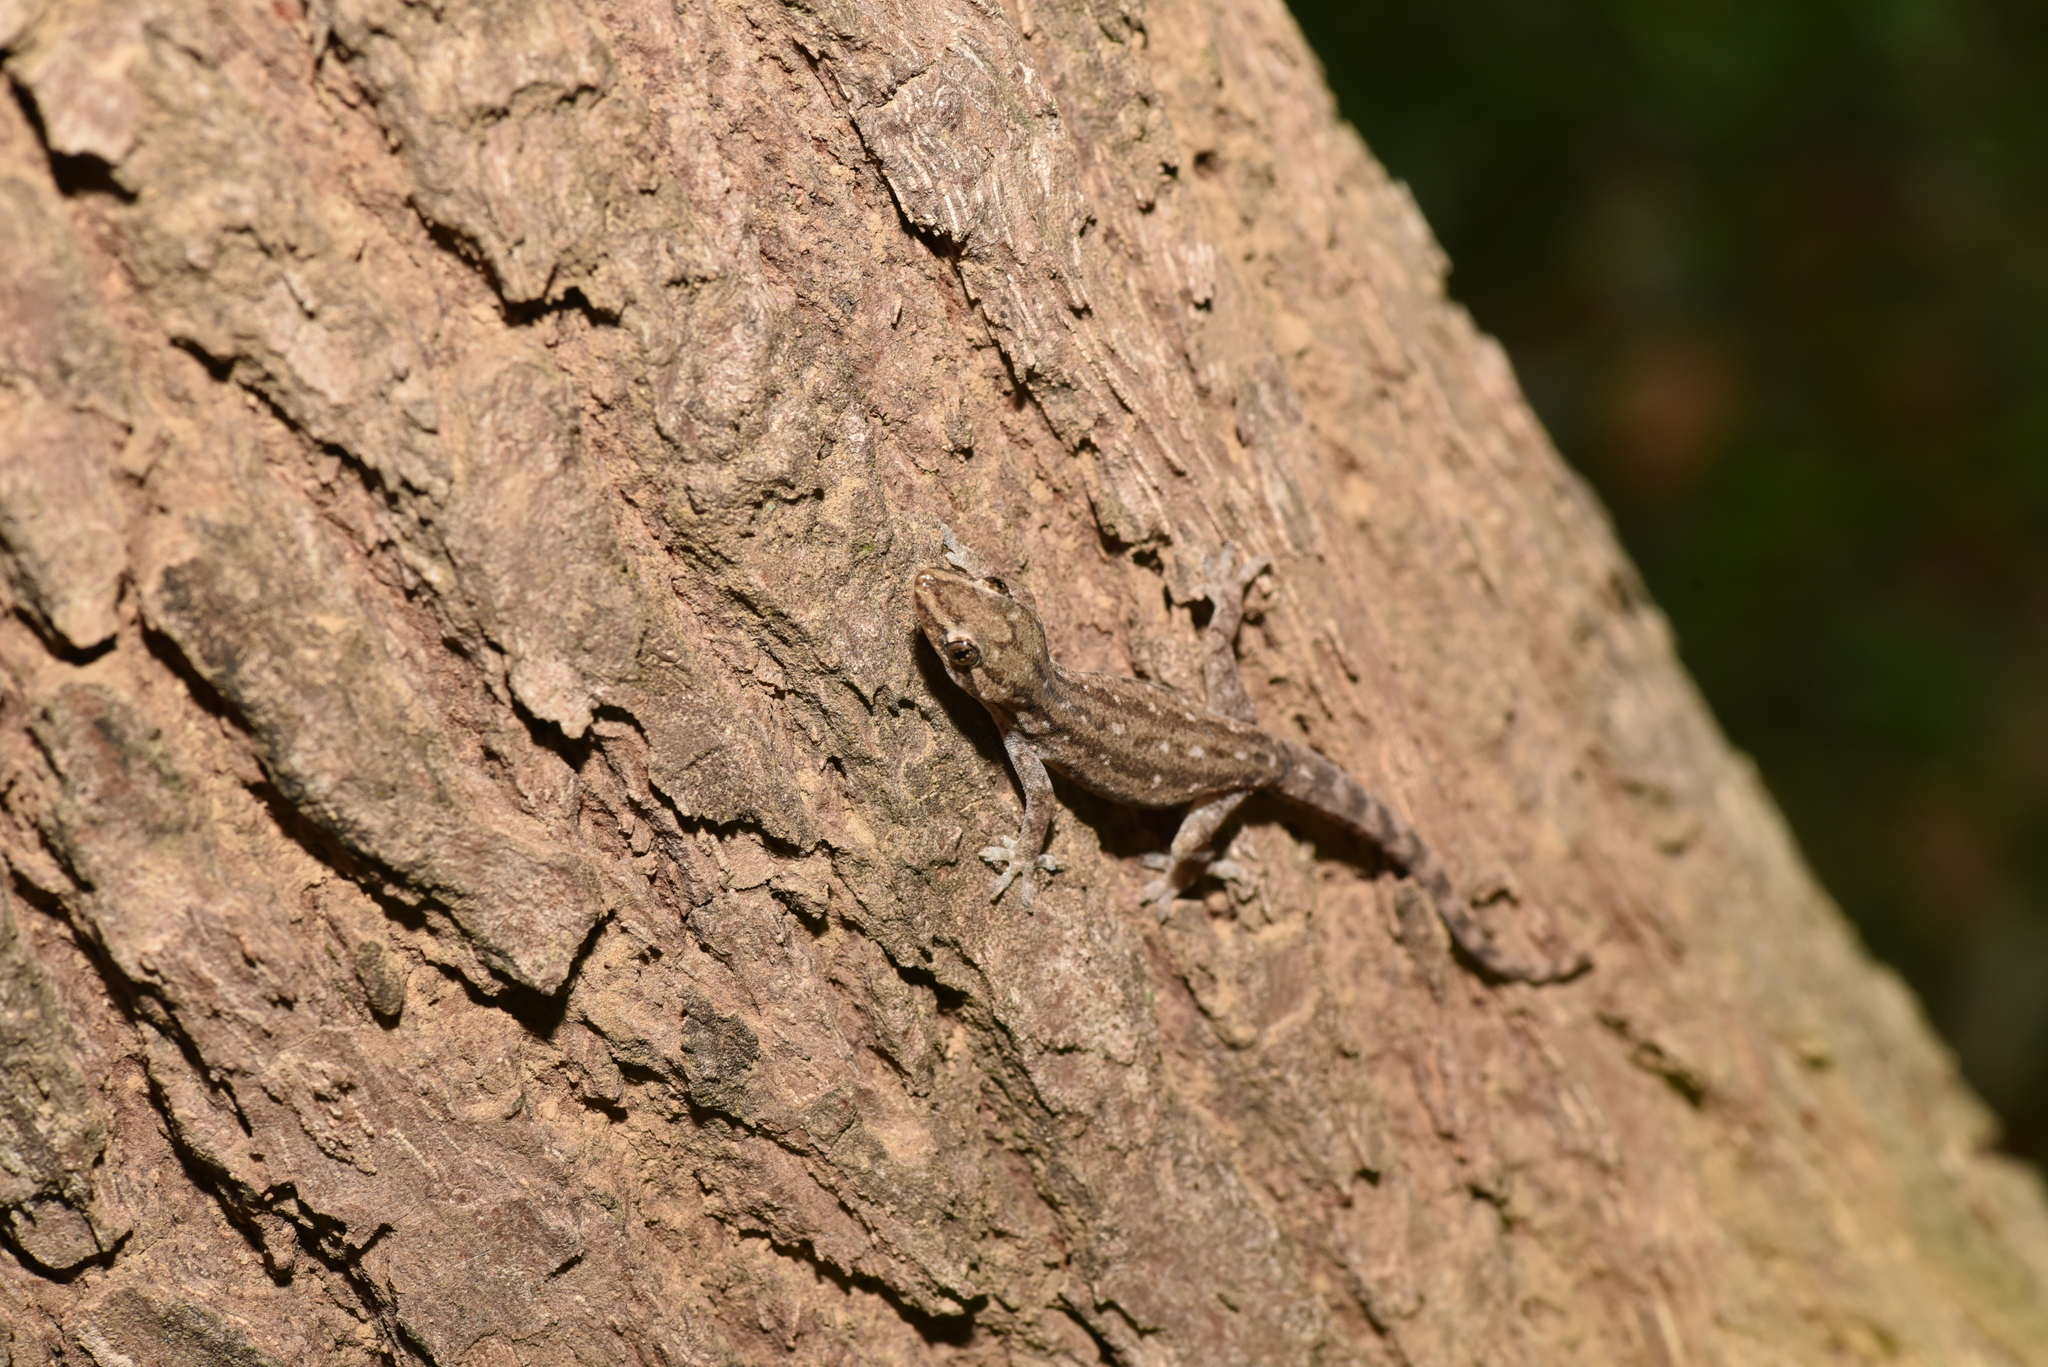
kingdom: Animalia
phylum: Chordata
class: Squamata
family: Gekkonidae
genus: Hemidactylus
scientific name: Hemidactylus frenatus
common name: Common house gecko
